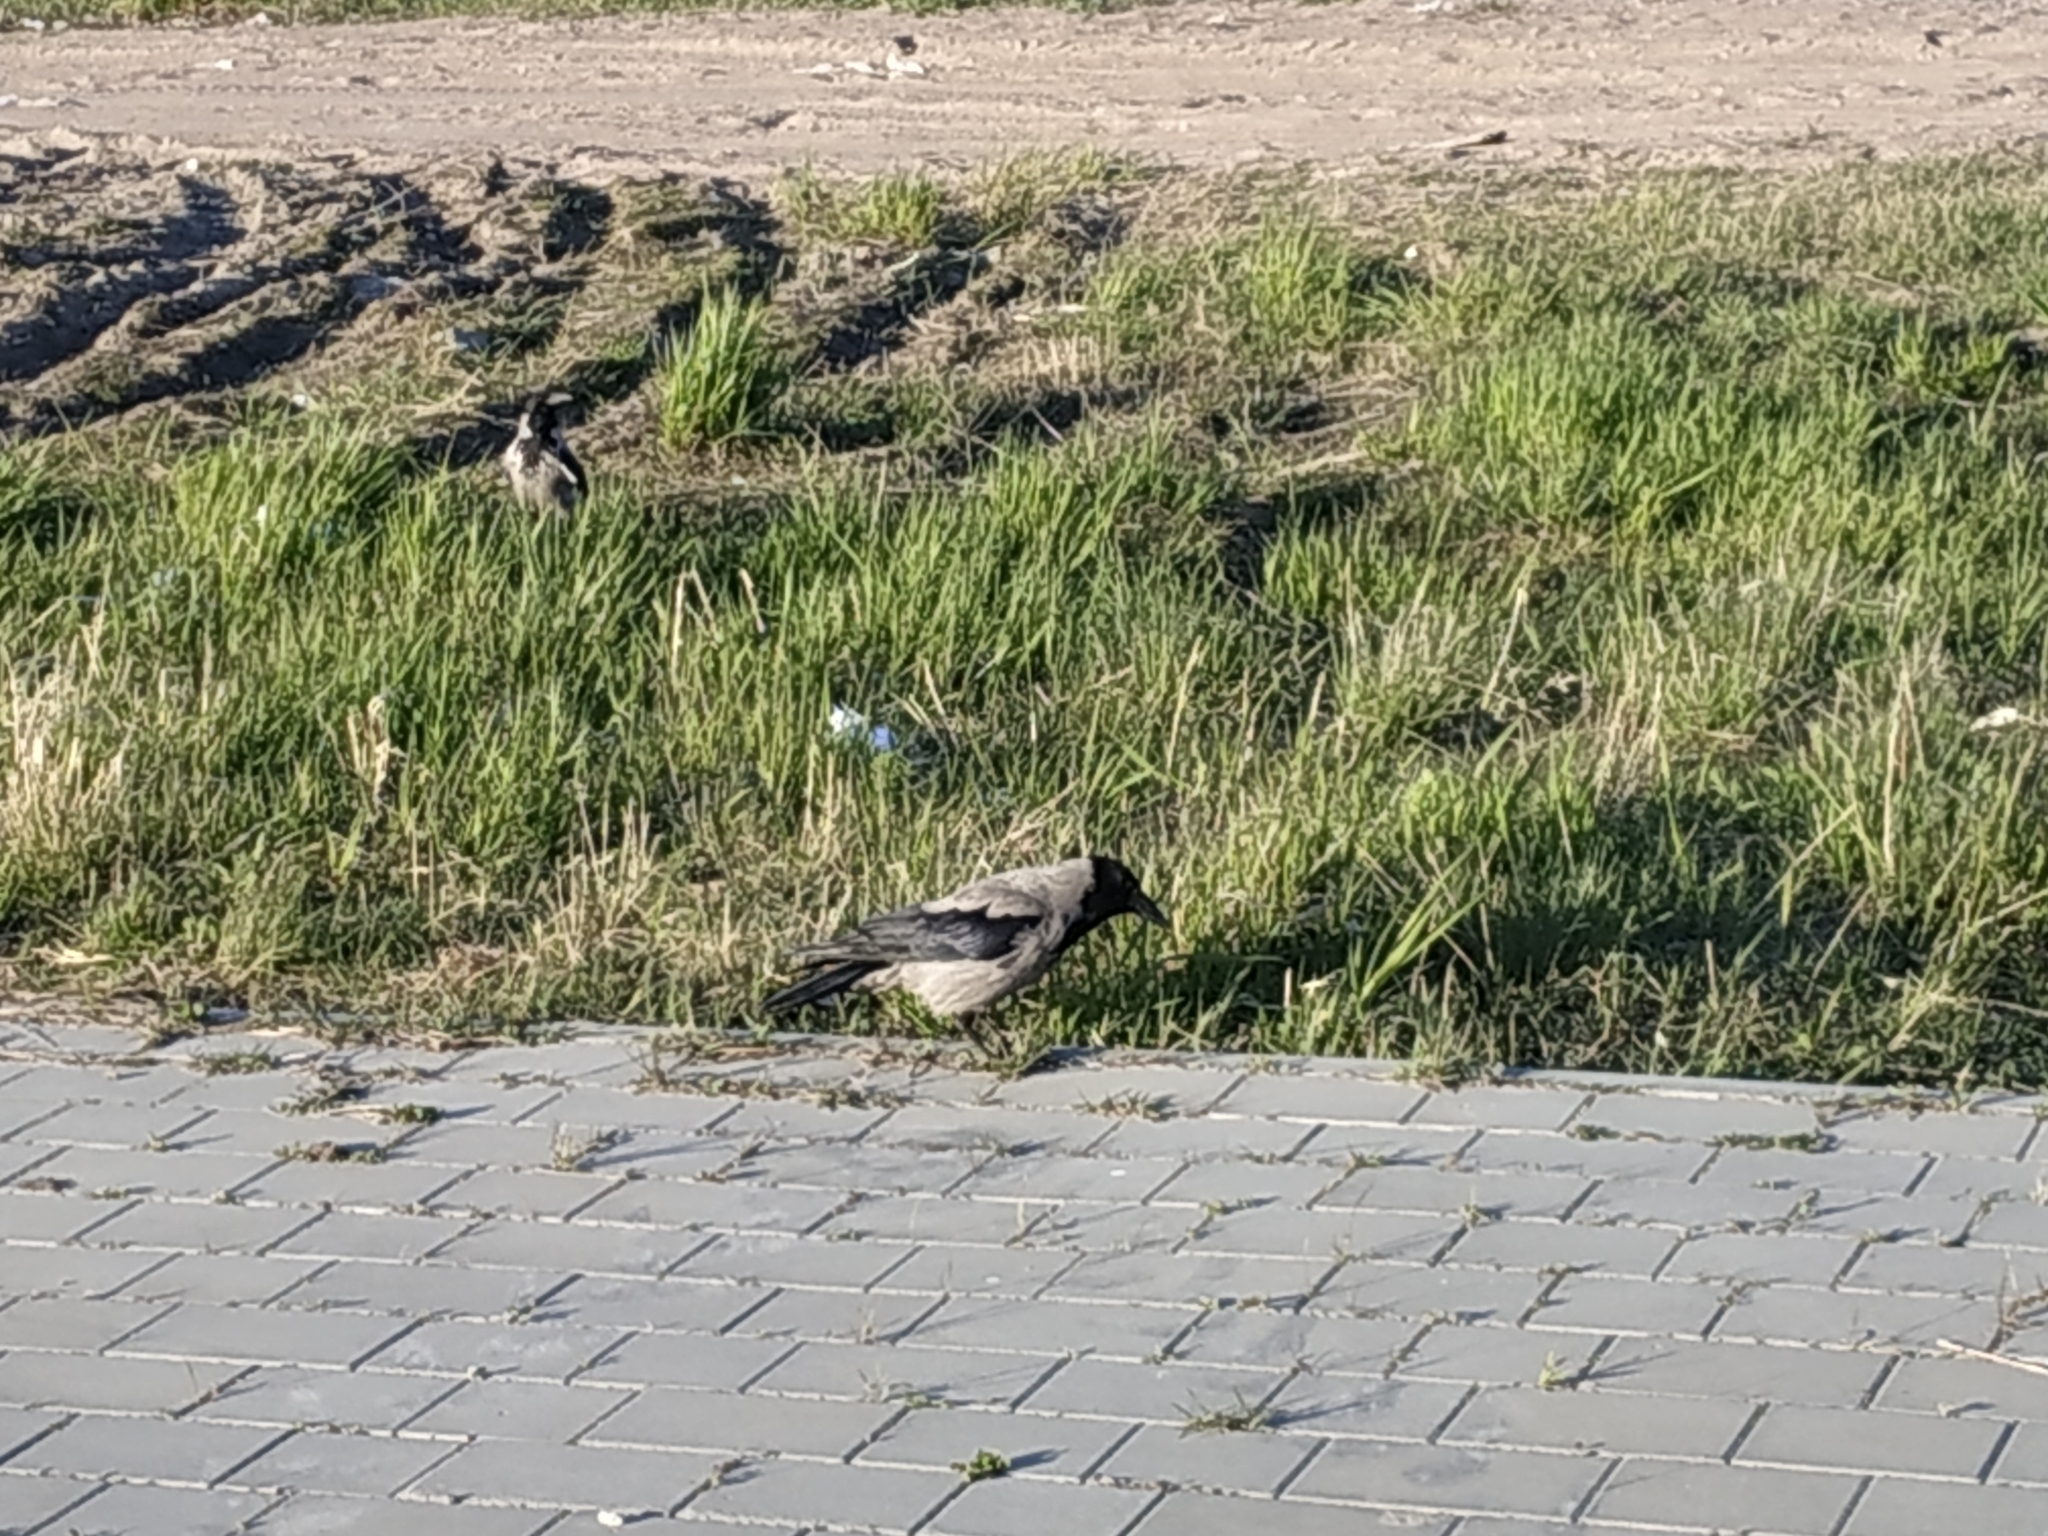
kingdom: Animalia
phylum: Chordata
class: Aves
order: Passeriformes
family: Corvidae
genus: Corvus
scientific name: Corvus cornix
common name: Hooded crow
